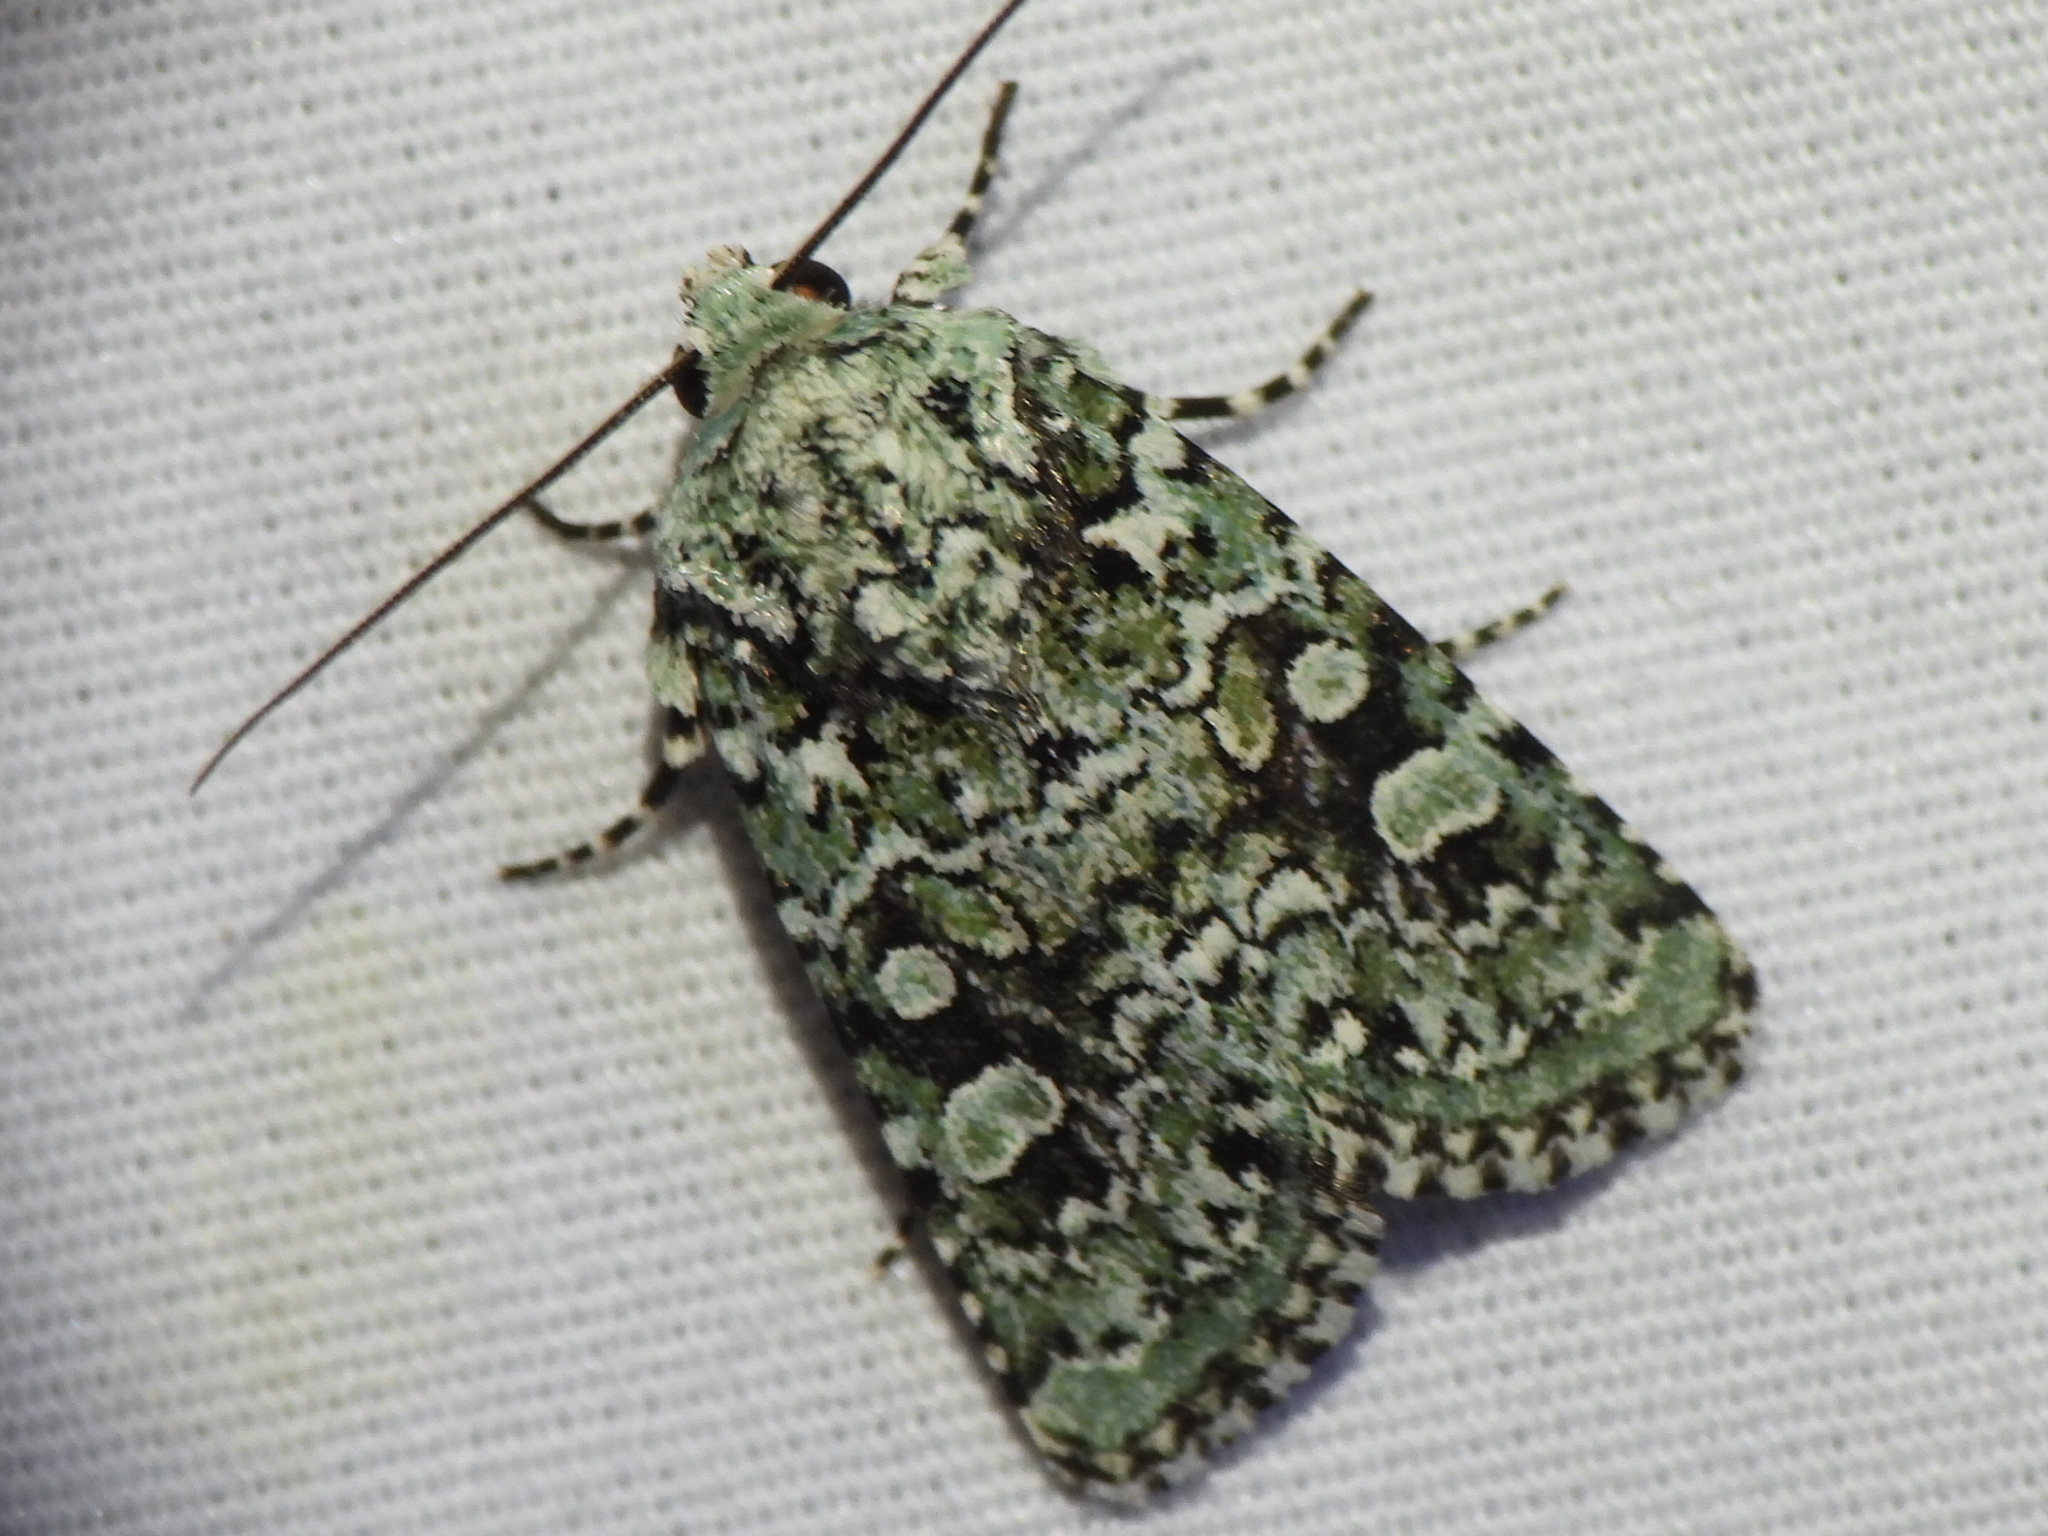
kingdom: Animalia
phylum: Arthropoda
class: Insecta
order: Lepidoptera
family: Noctuidae
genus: Lacinipolia
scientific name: Lacinipolia laudabilis
